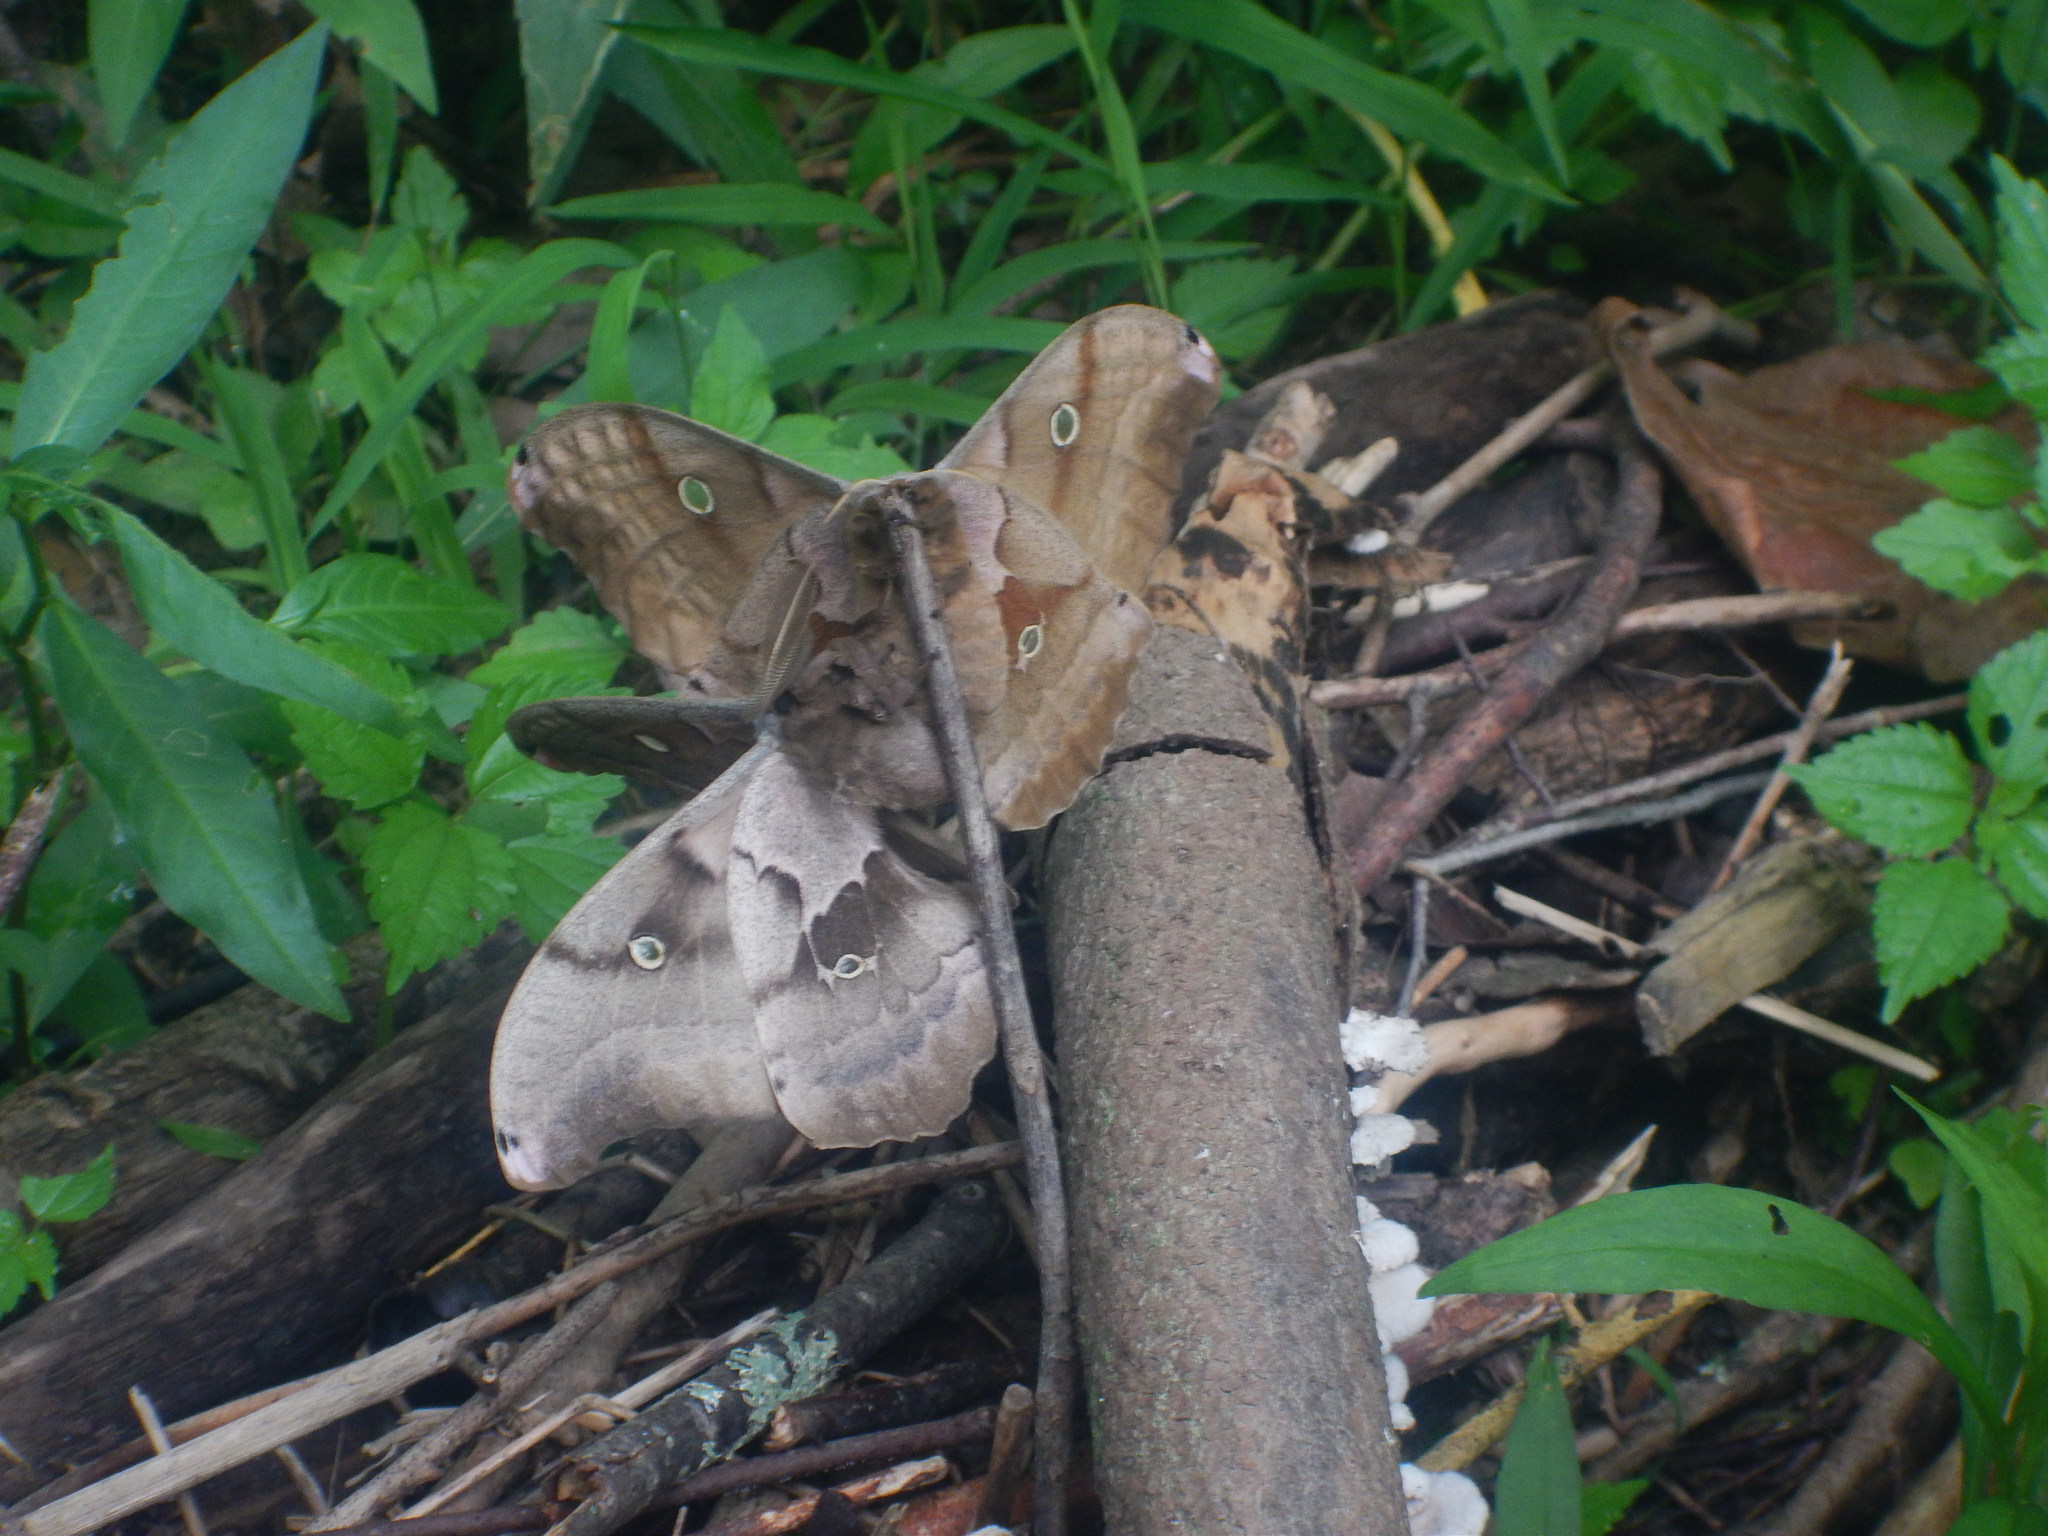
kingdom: Animalia
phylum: Arthropoda
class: Insecta
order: Lepidoptera
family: Saturniidae
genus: Antheraea
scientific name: Antheraea polyphemus
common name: Polyphemus moth
